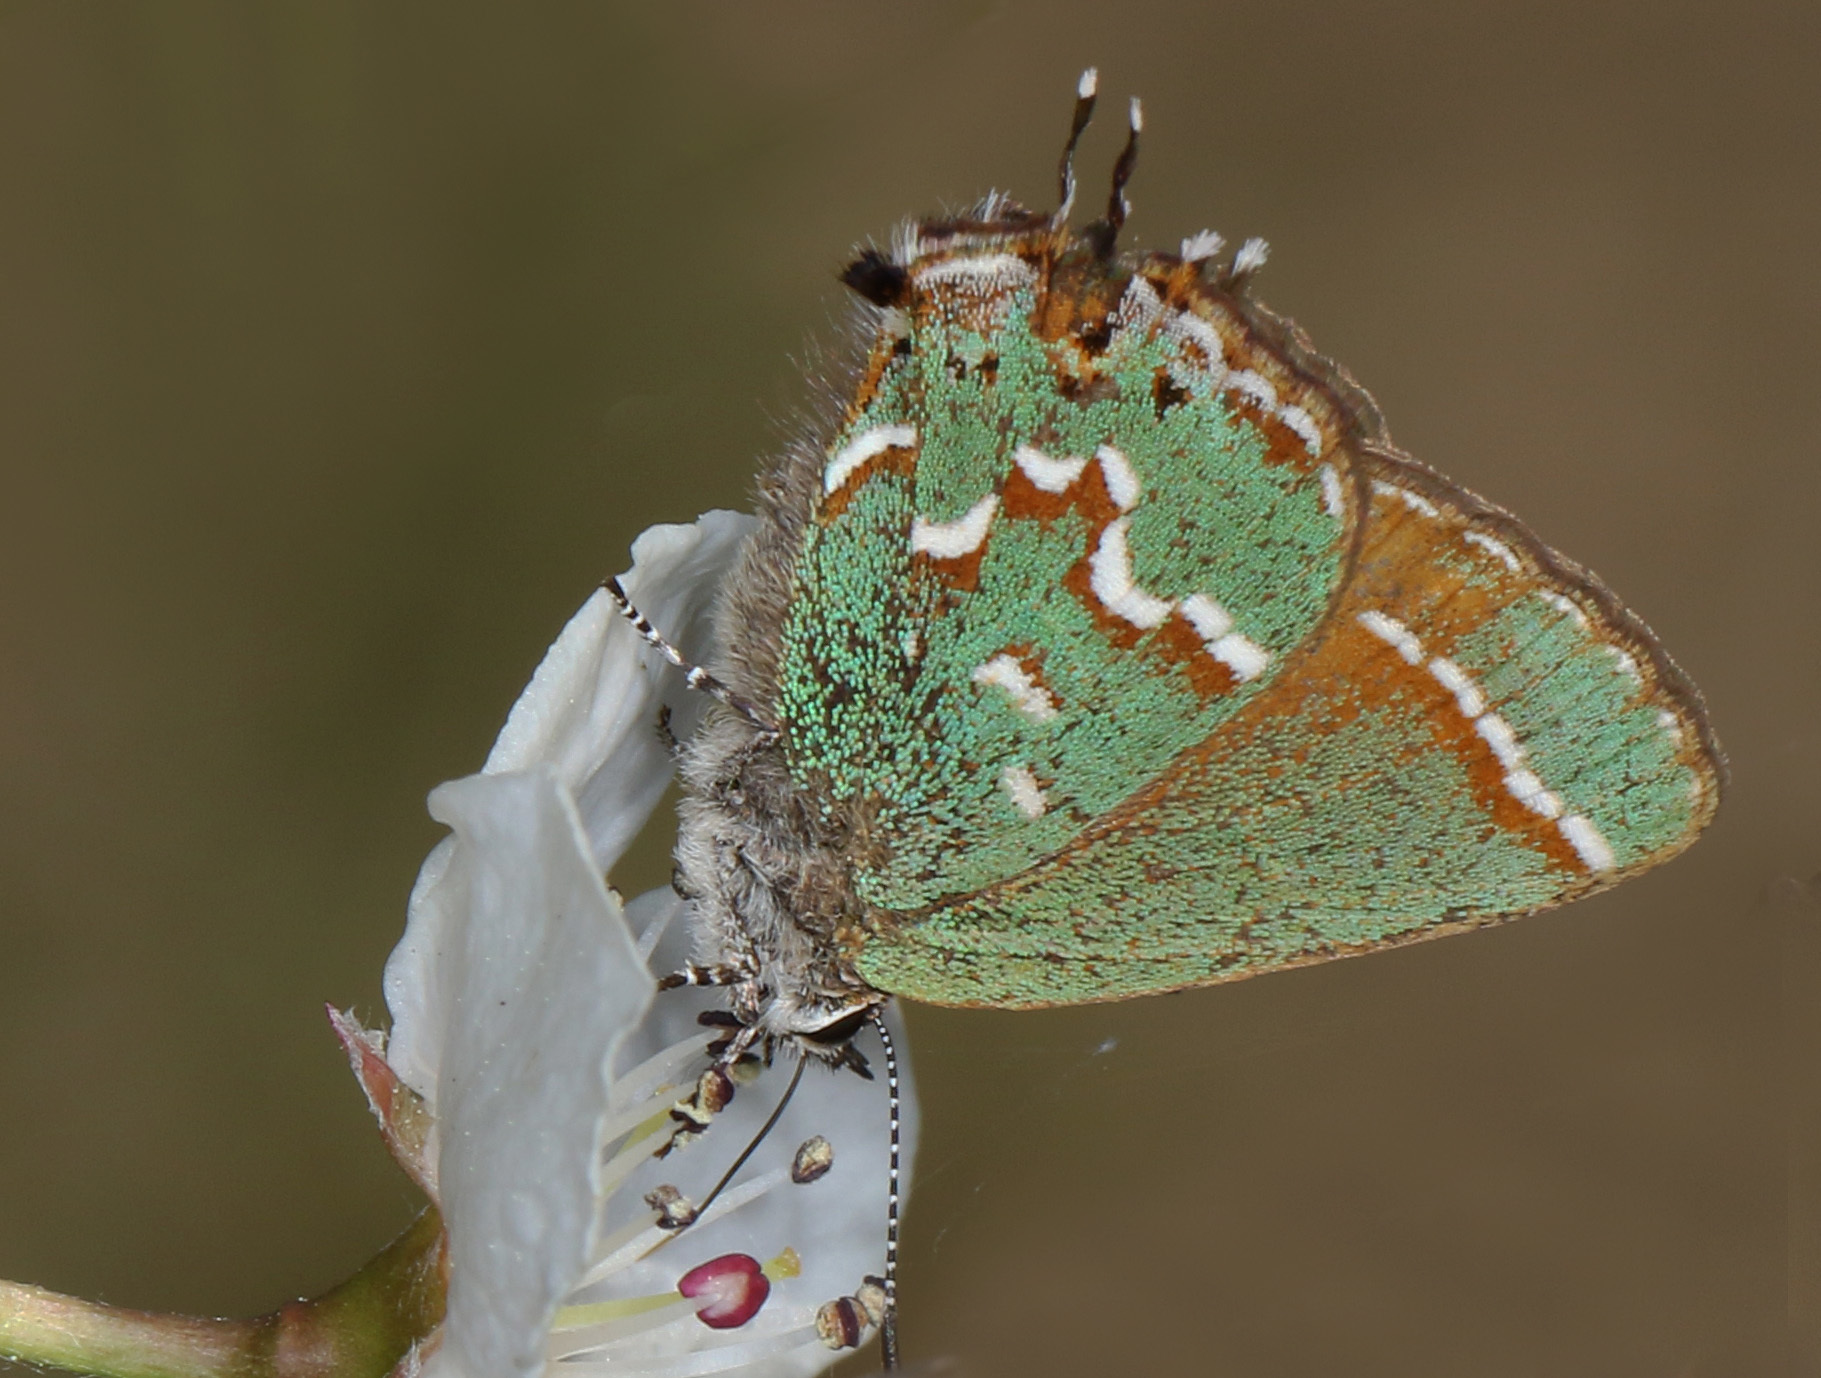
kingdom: Animalia
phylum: Arthropoda
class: Insecta
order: Lepidoptera
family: Lycaenidae
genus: Mitoura
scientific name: Mitoura gryneus
